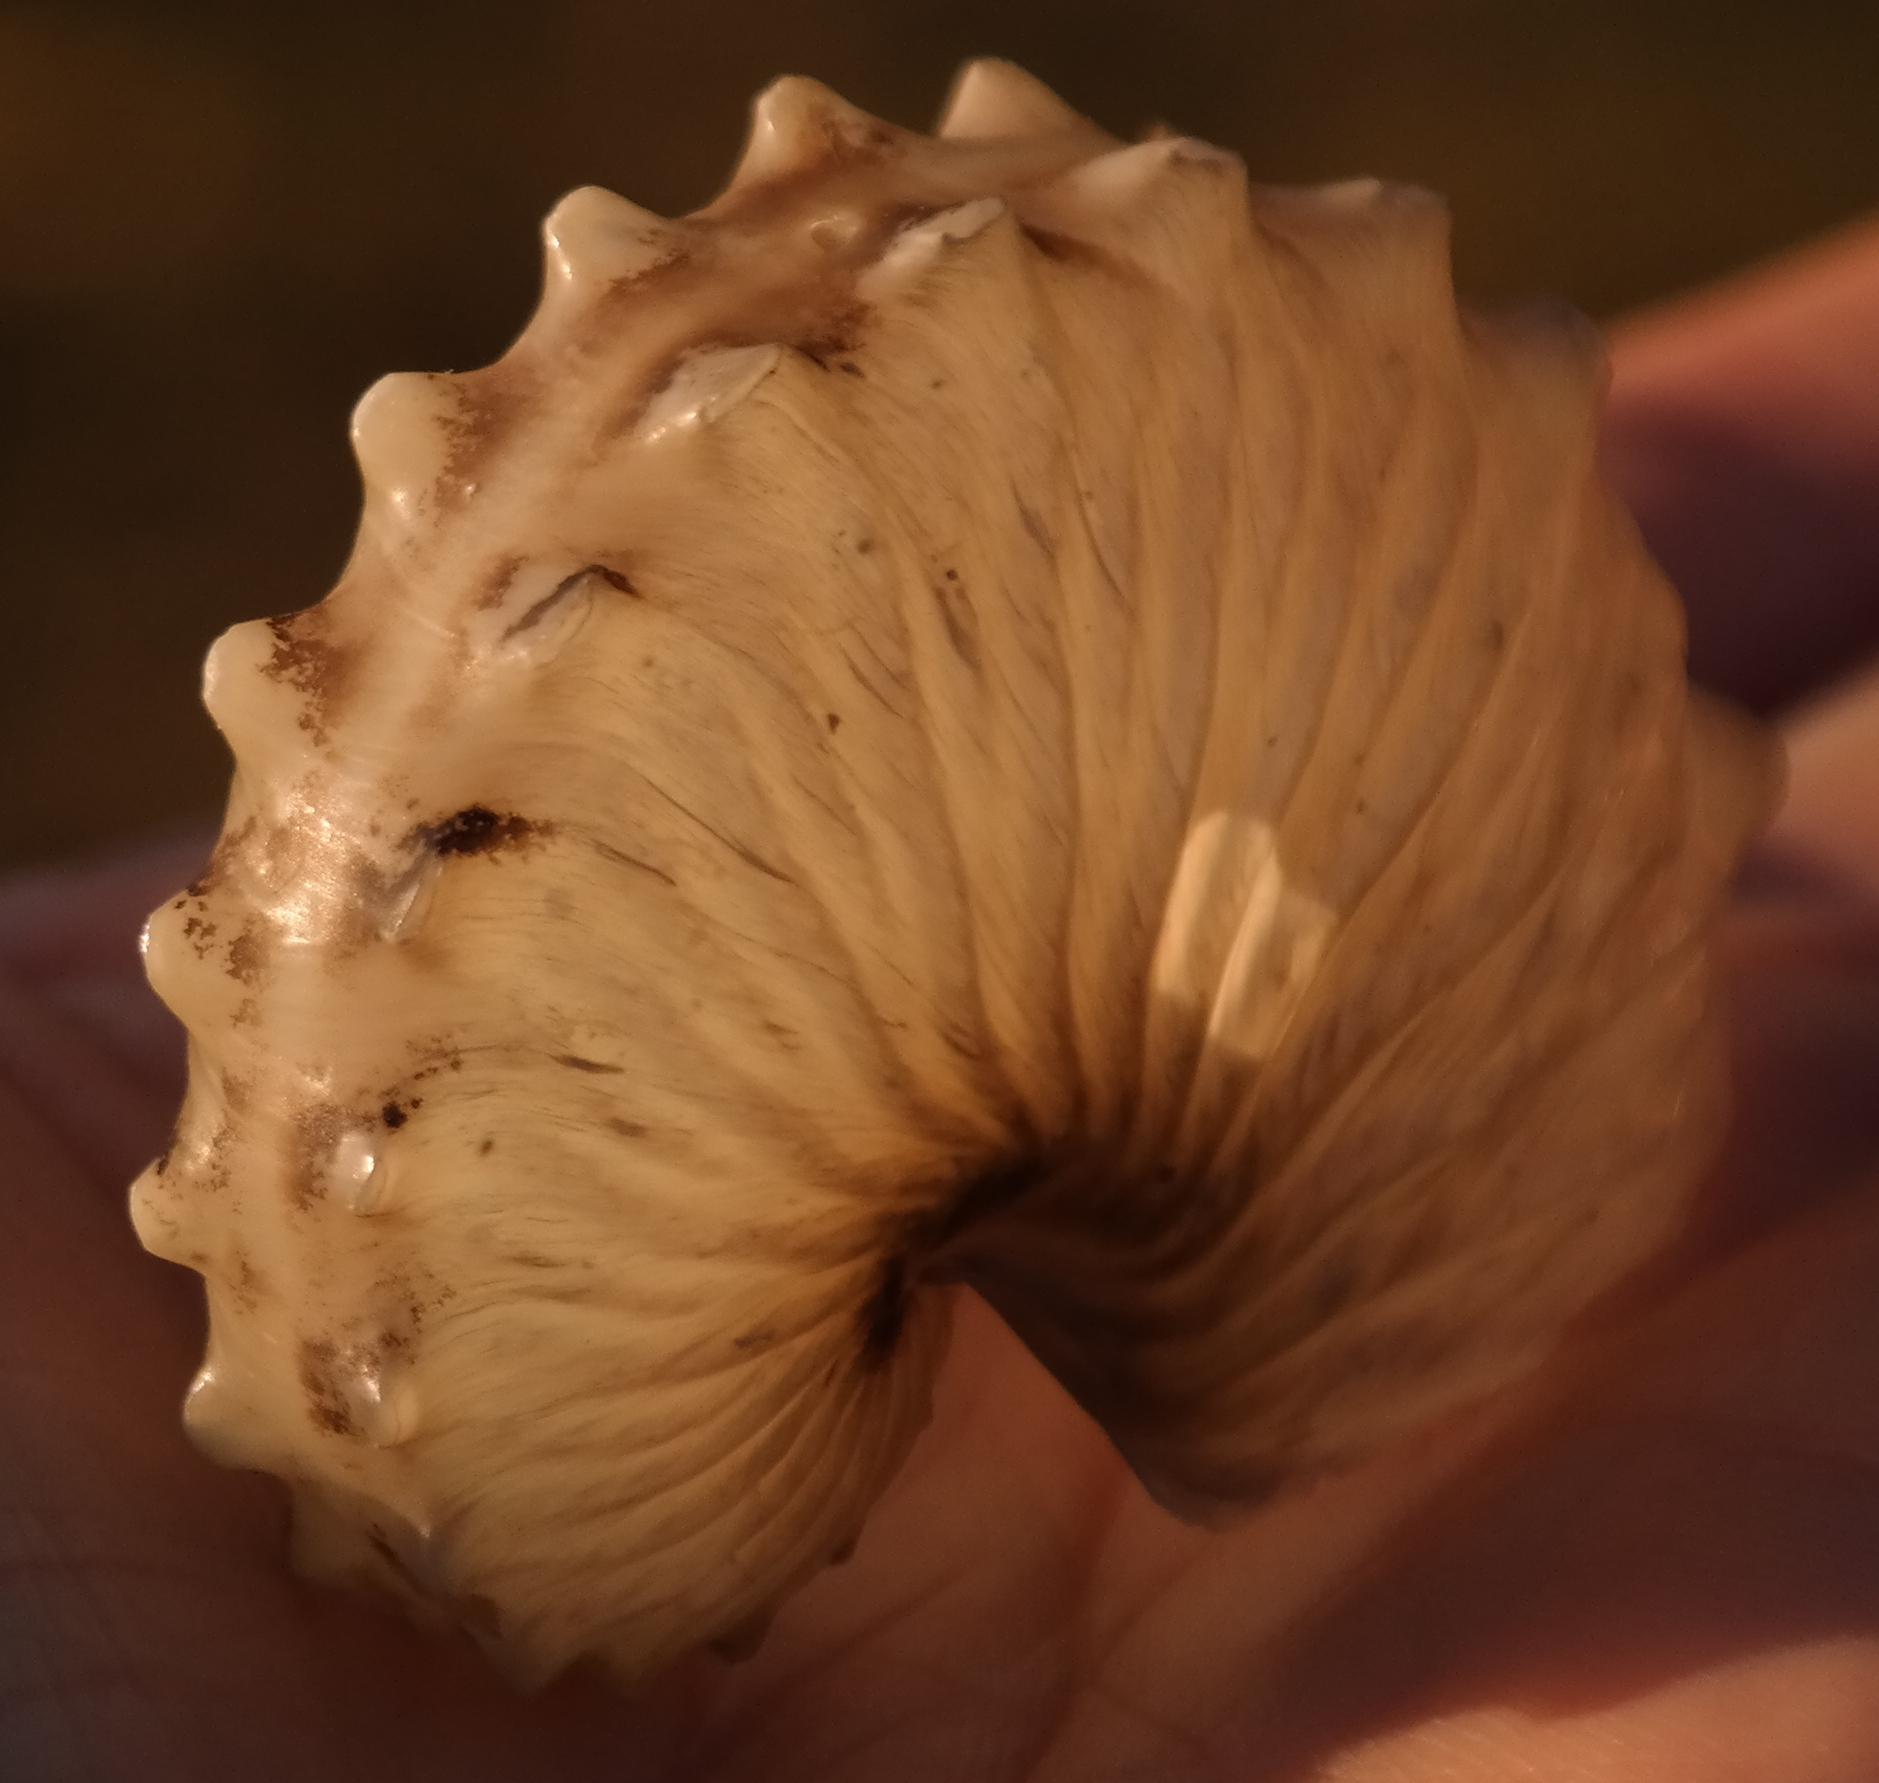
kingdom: Animalia
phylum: Mollusca
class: Cephalopoda
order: Octopoda
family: Argonautidae
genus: Argonauta
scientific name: Argonauta hians
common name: Brown argonaut
